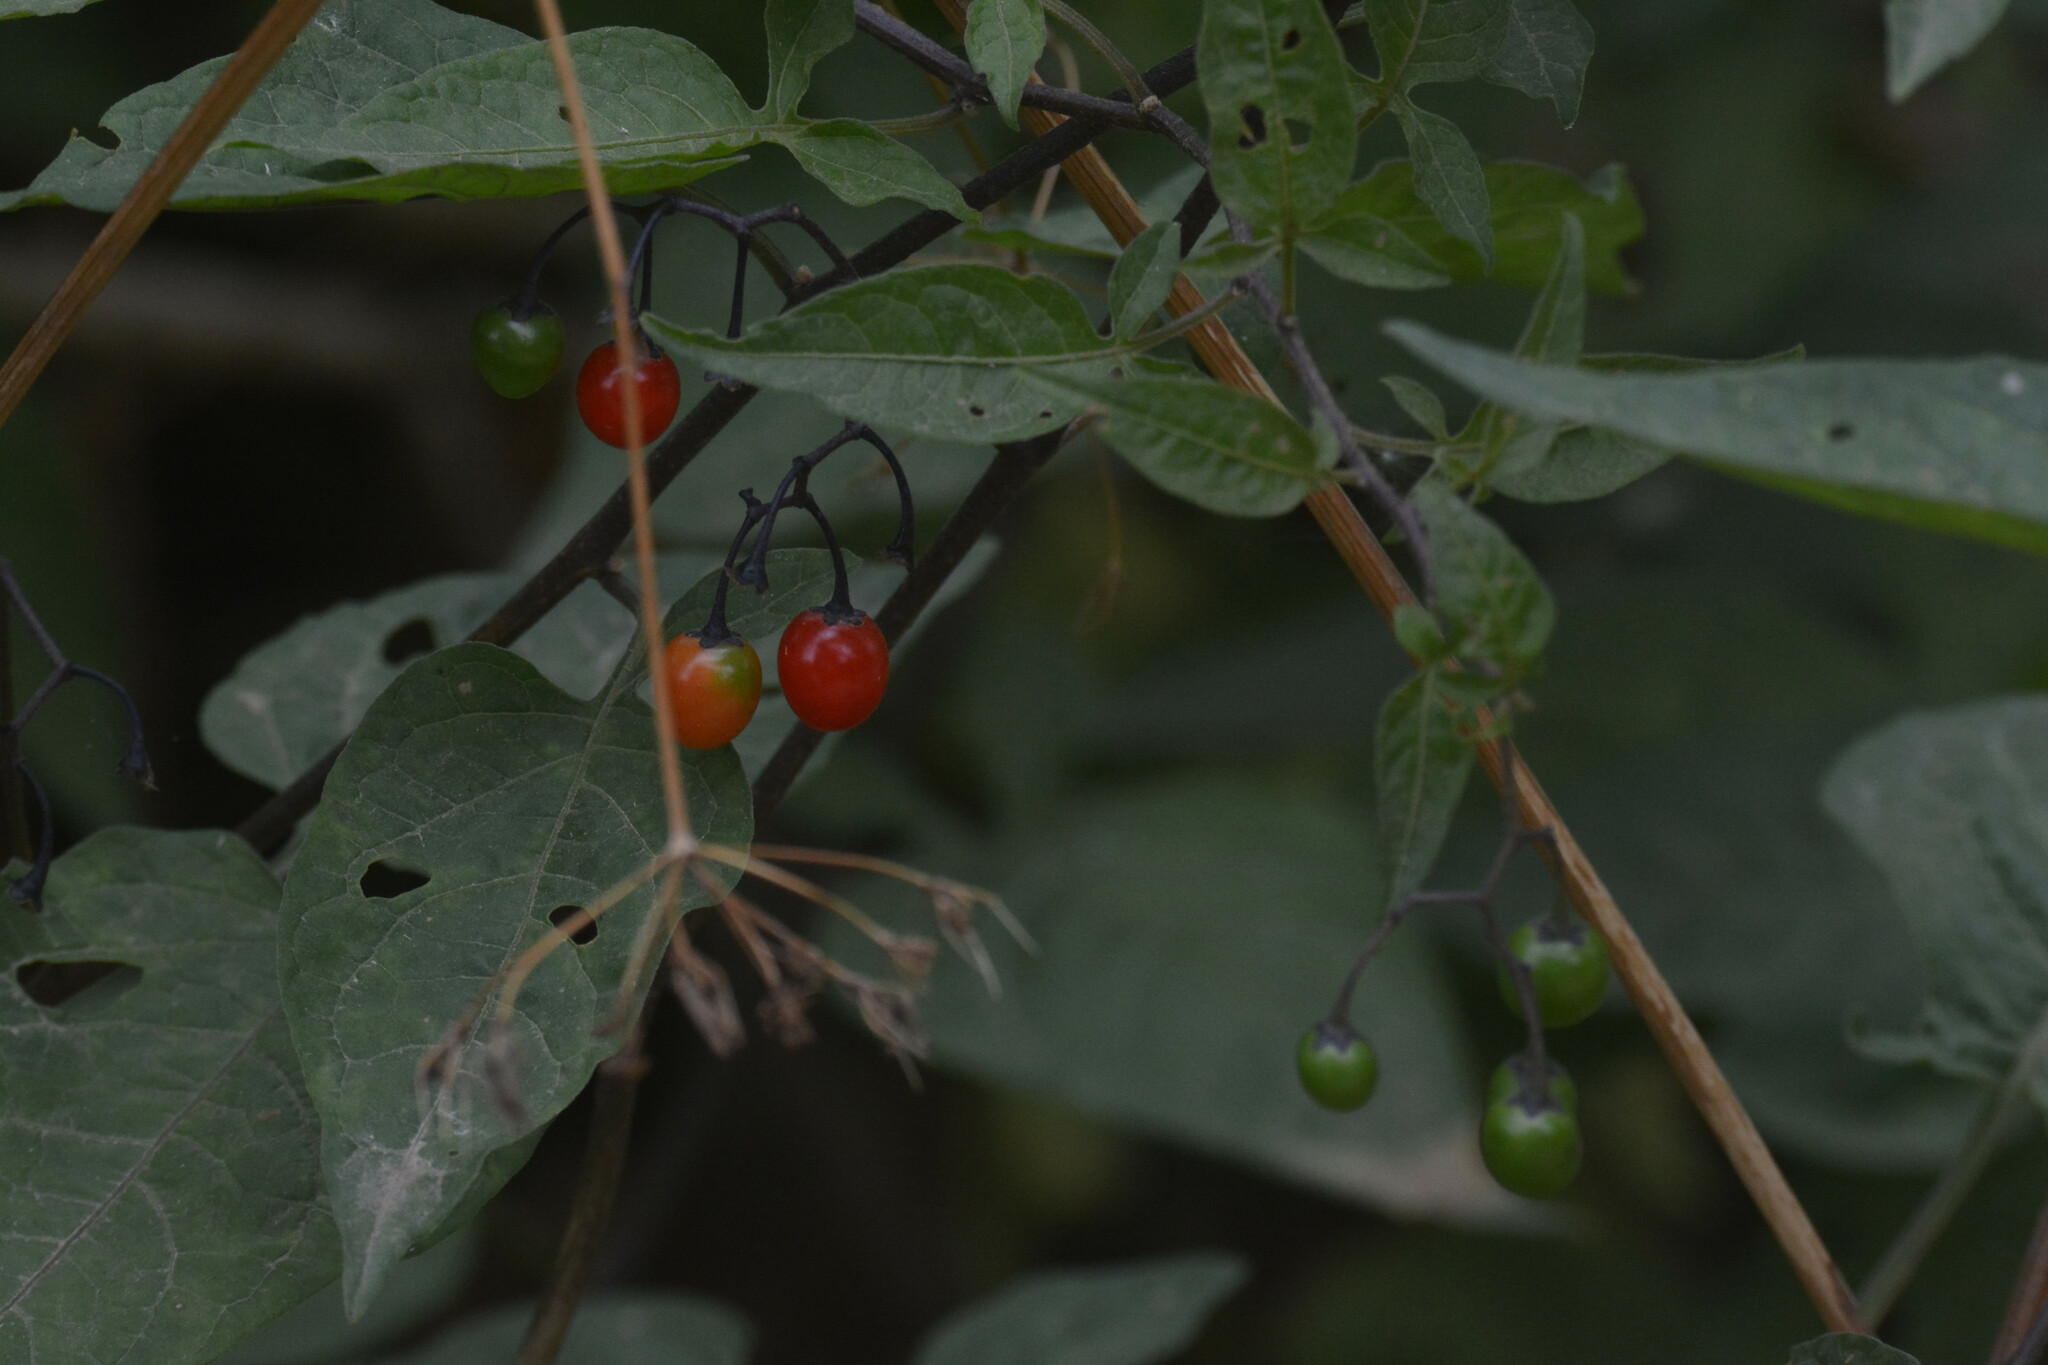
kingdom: Plantae
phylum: Tracheophyta
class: Magnoliopsida
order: Solanales
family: Solanaceae
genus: Solanum
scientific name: Solanum dulcamara
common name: Climbing nightshade
